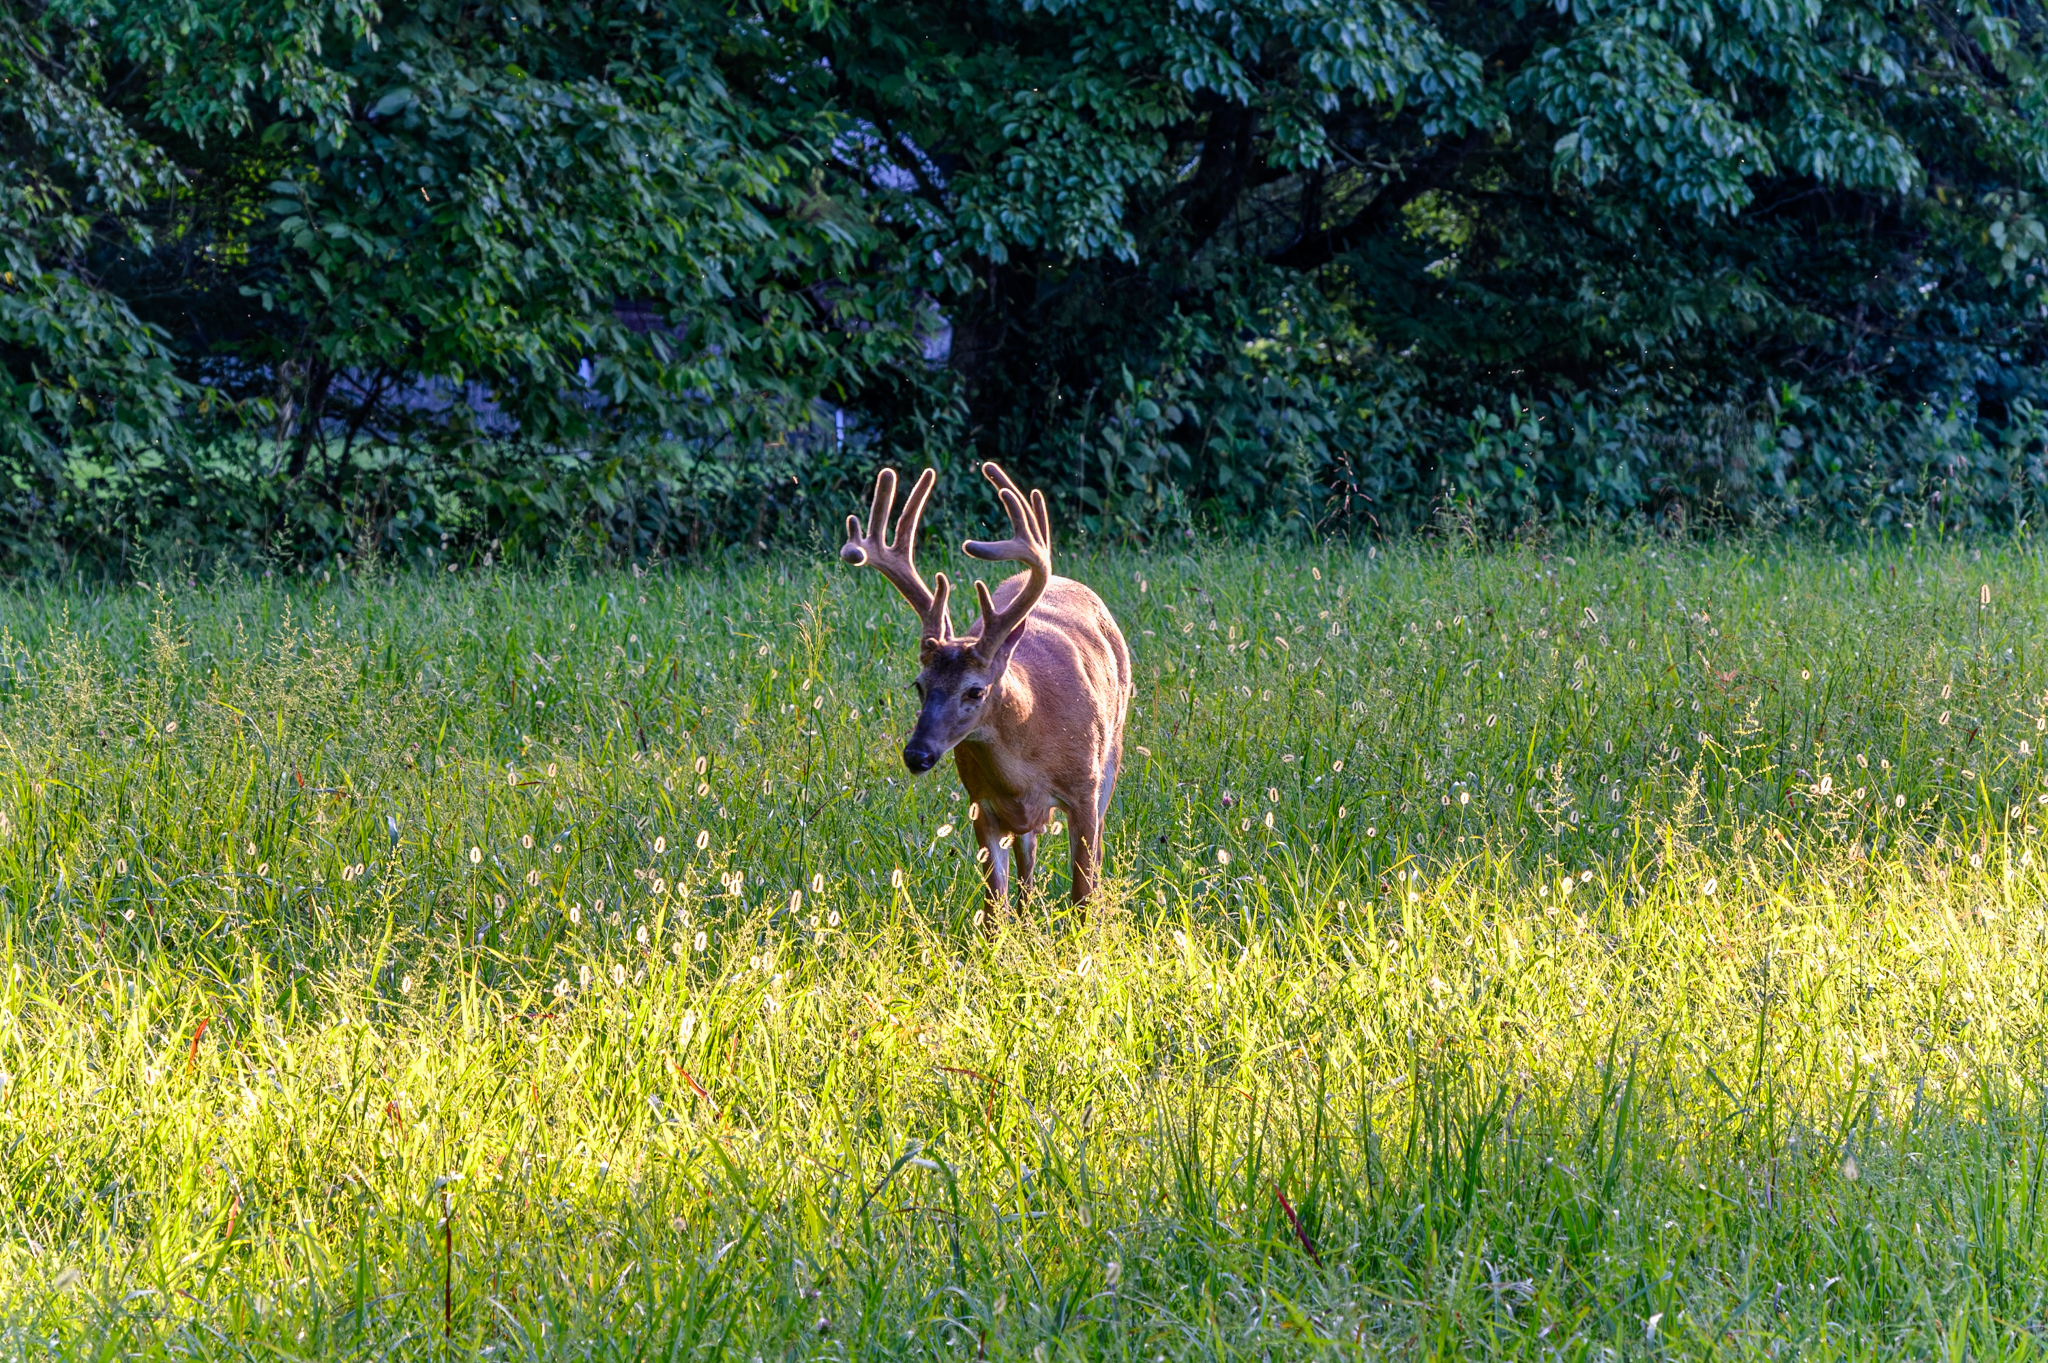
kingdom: Animalia
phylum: Chordata
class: Mammalia
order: Artiodactyla
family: Cervidae
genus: Odocoileus
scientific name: Odocoileus virginianus
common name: White-tailed deer
